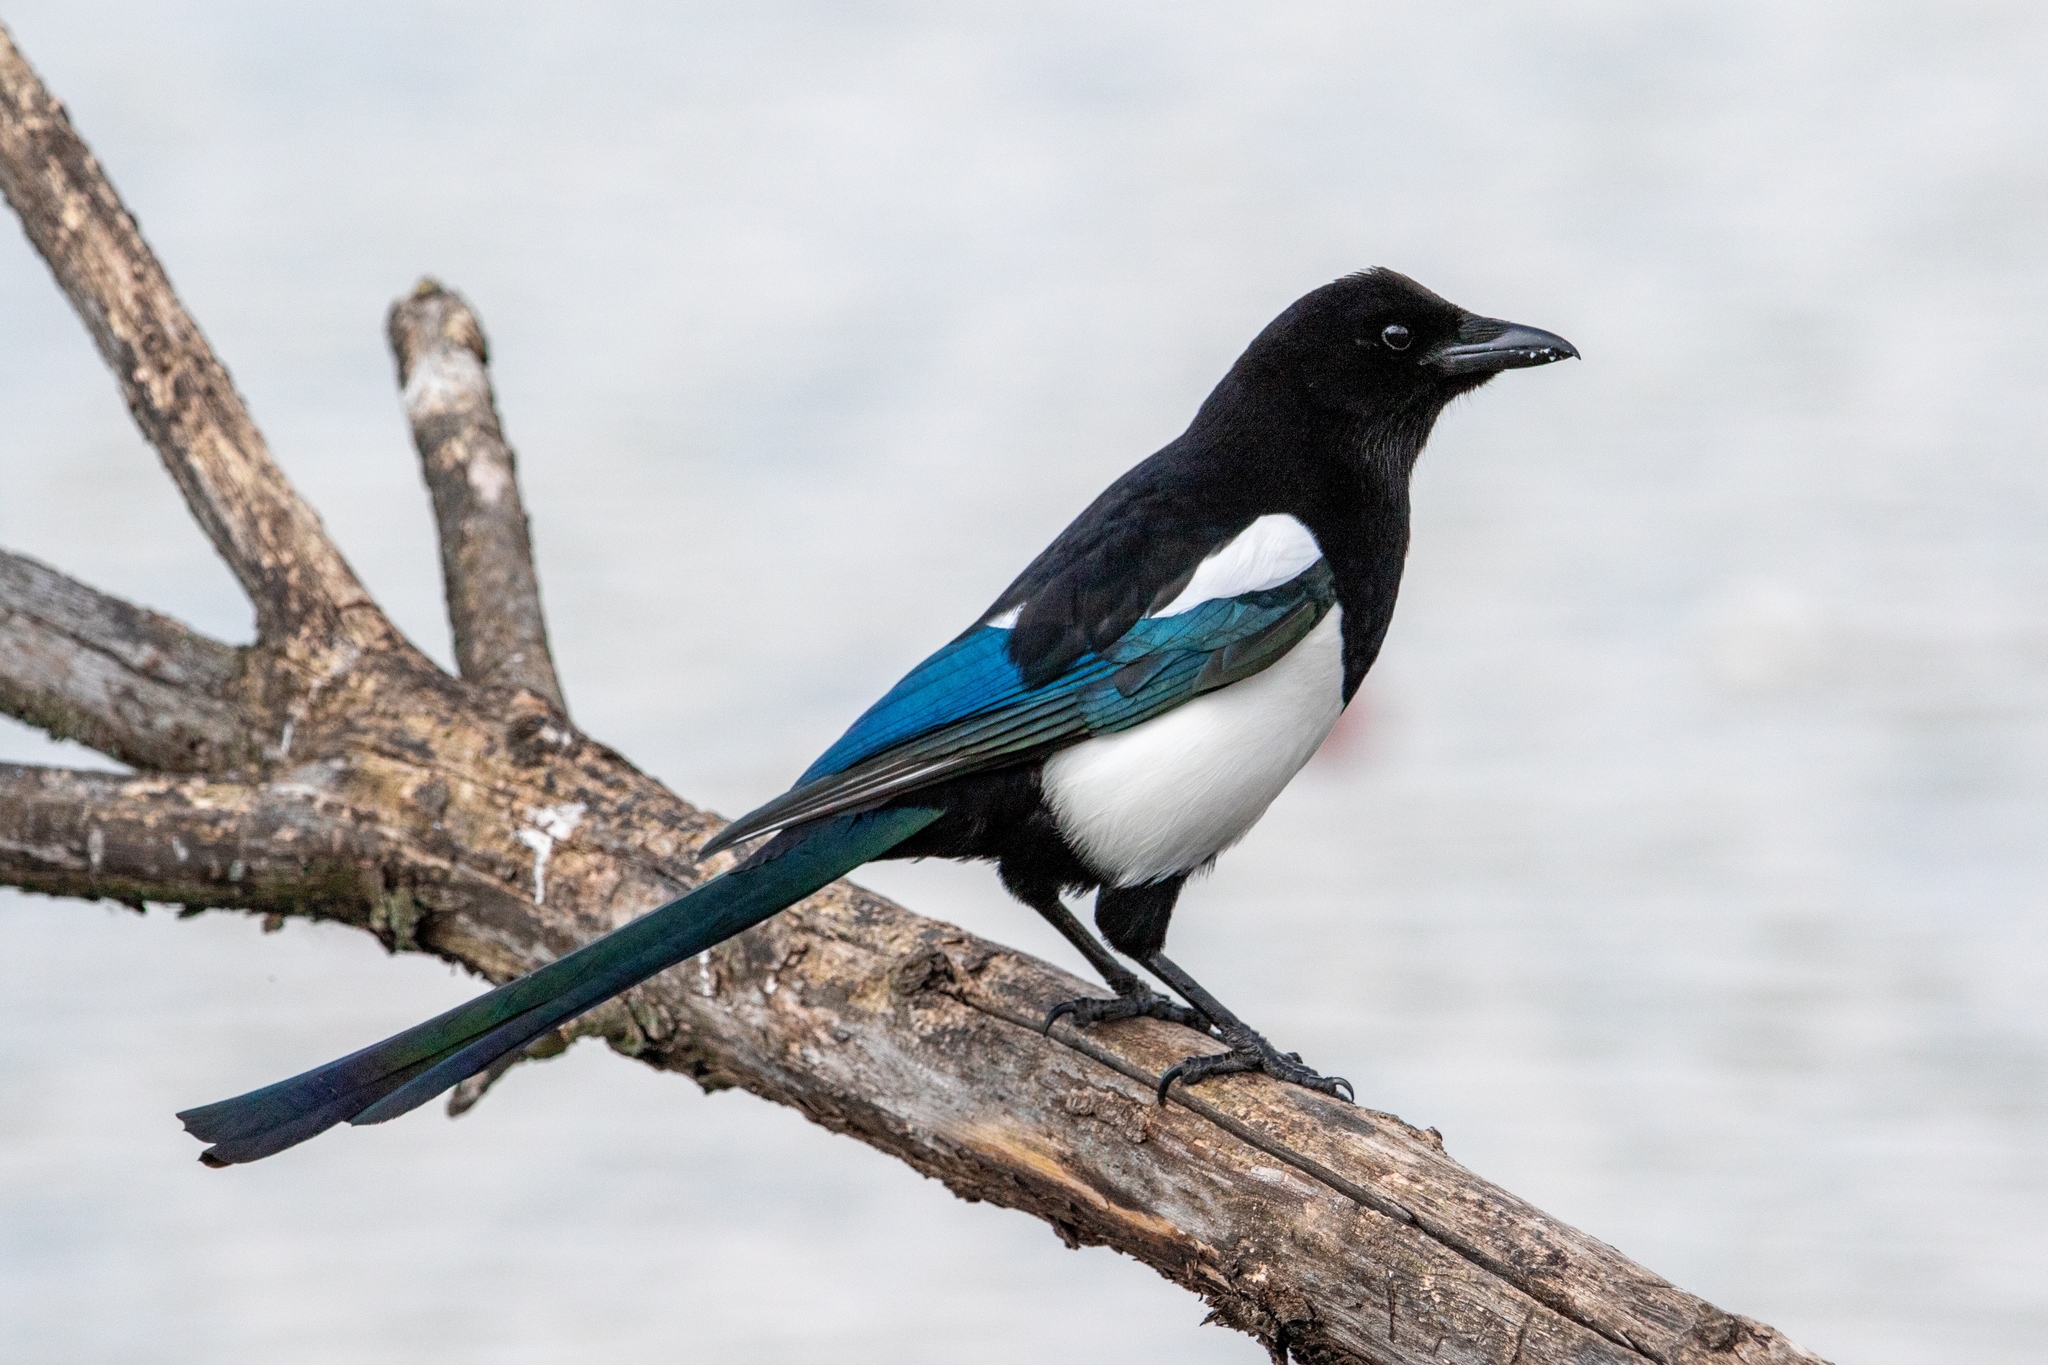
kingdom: Animalia
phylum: Chordata
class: Aves
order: Passeriformes
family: Corvidae
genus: Pica
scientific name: Pica pica
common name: Eurasian magpie
